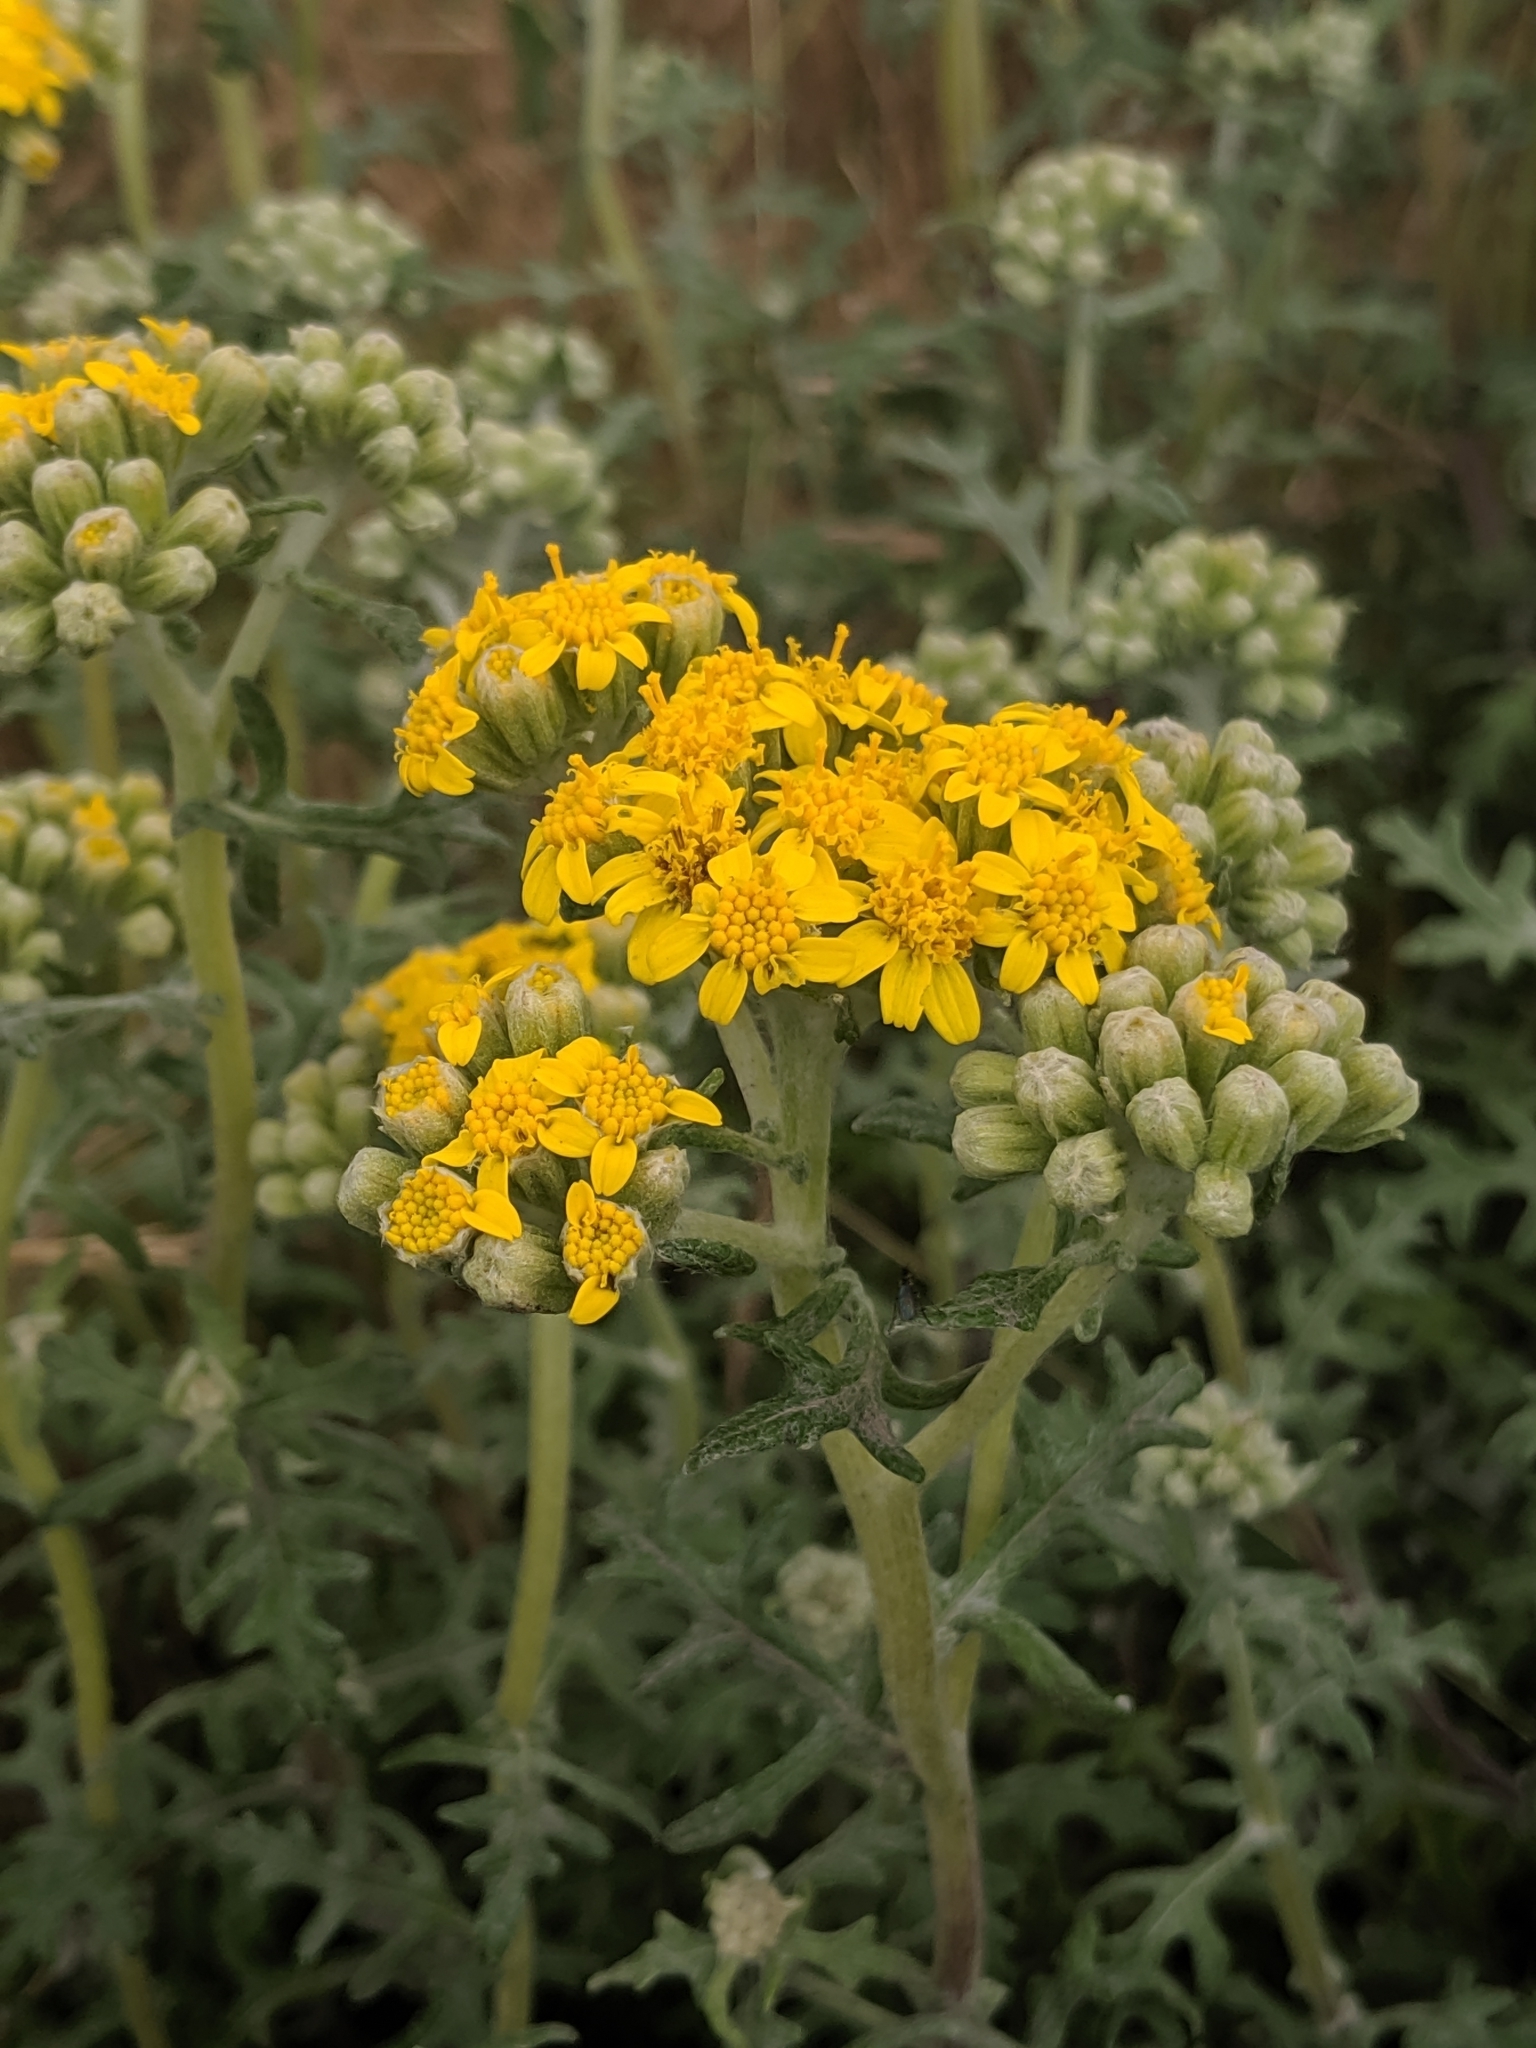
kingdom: Plantae
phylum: Tracheophyta
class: Magnoliopsida
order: Asterales
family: Asteraceae
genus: Eriophyllum
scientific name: Eriophyllum staechadifolium
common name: Lizardtail
